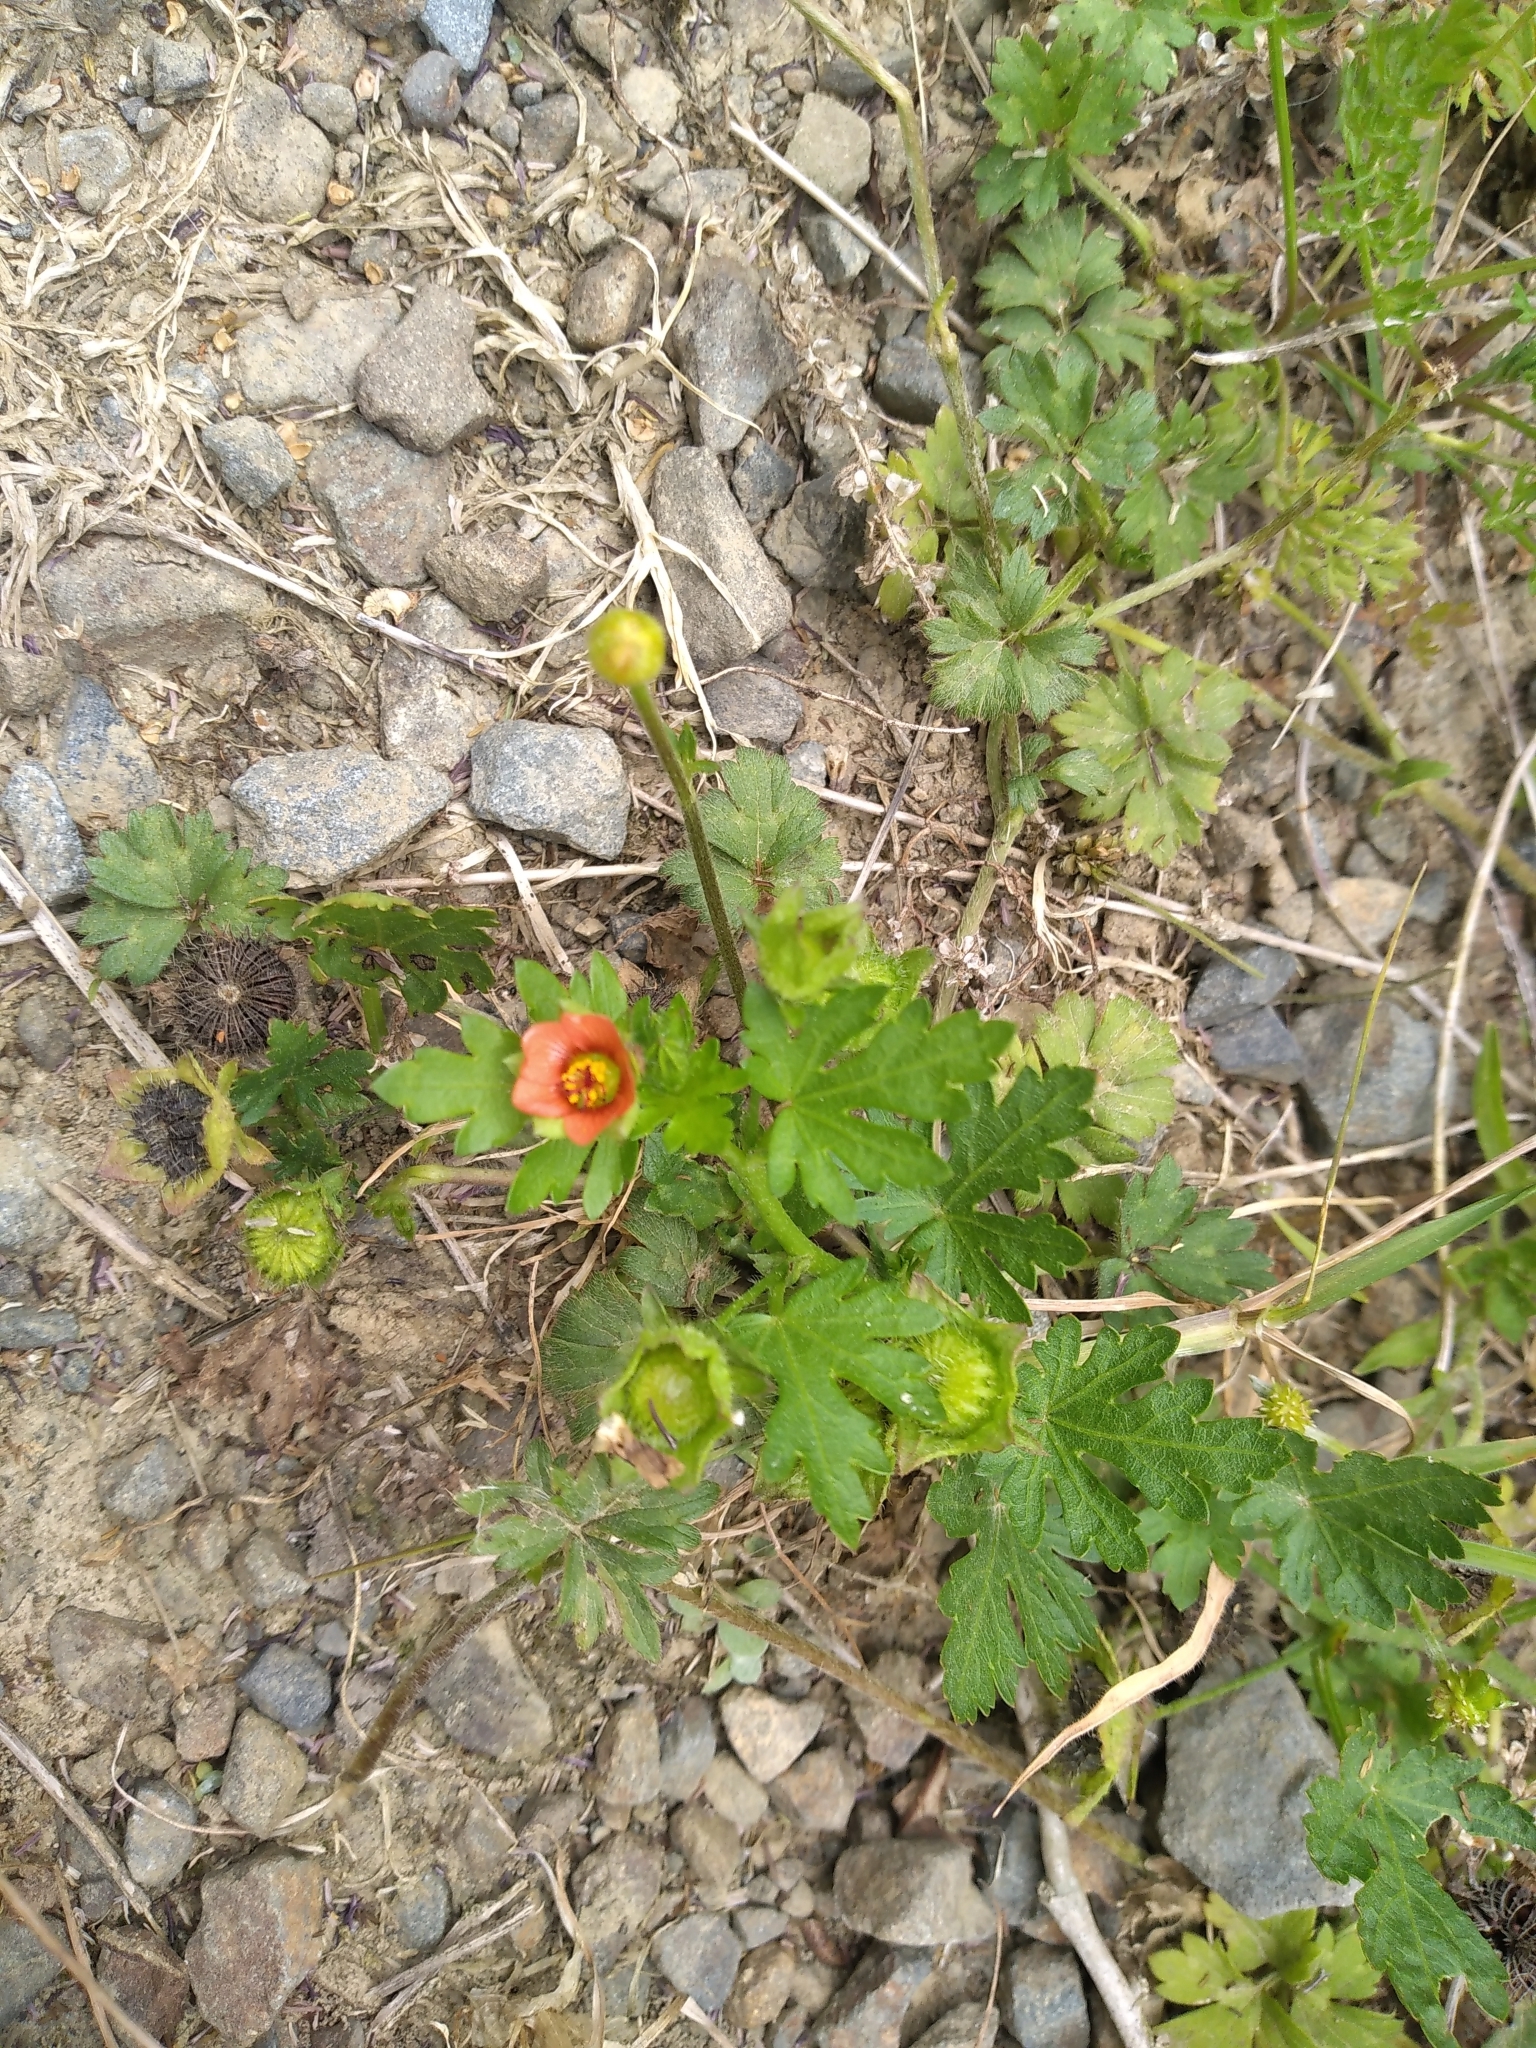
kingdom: Plantae
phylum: Tracheophyta
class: Magnoliopsida
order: Malvales
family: Malvaceae
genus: Modiola
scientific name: Modiola caroliniana
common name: Carolina bristlemallow
